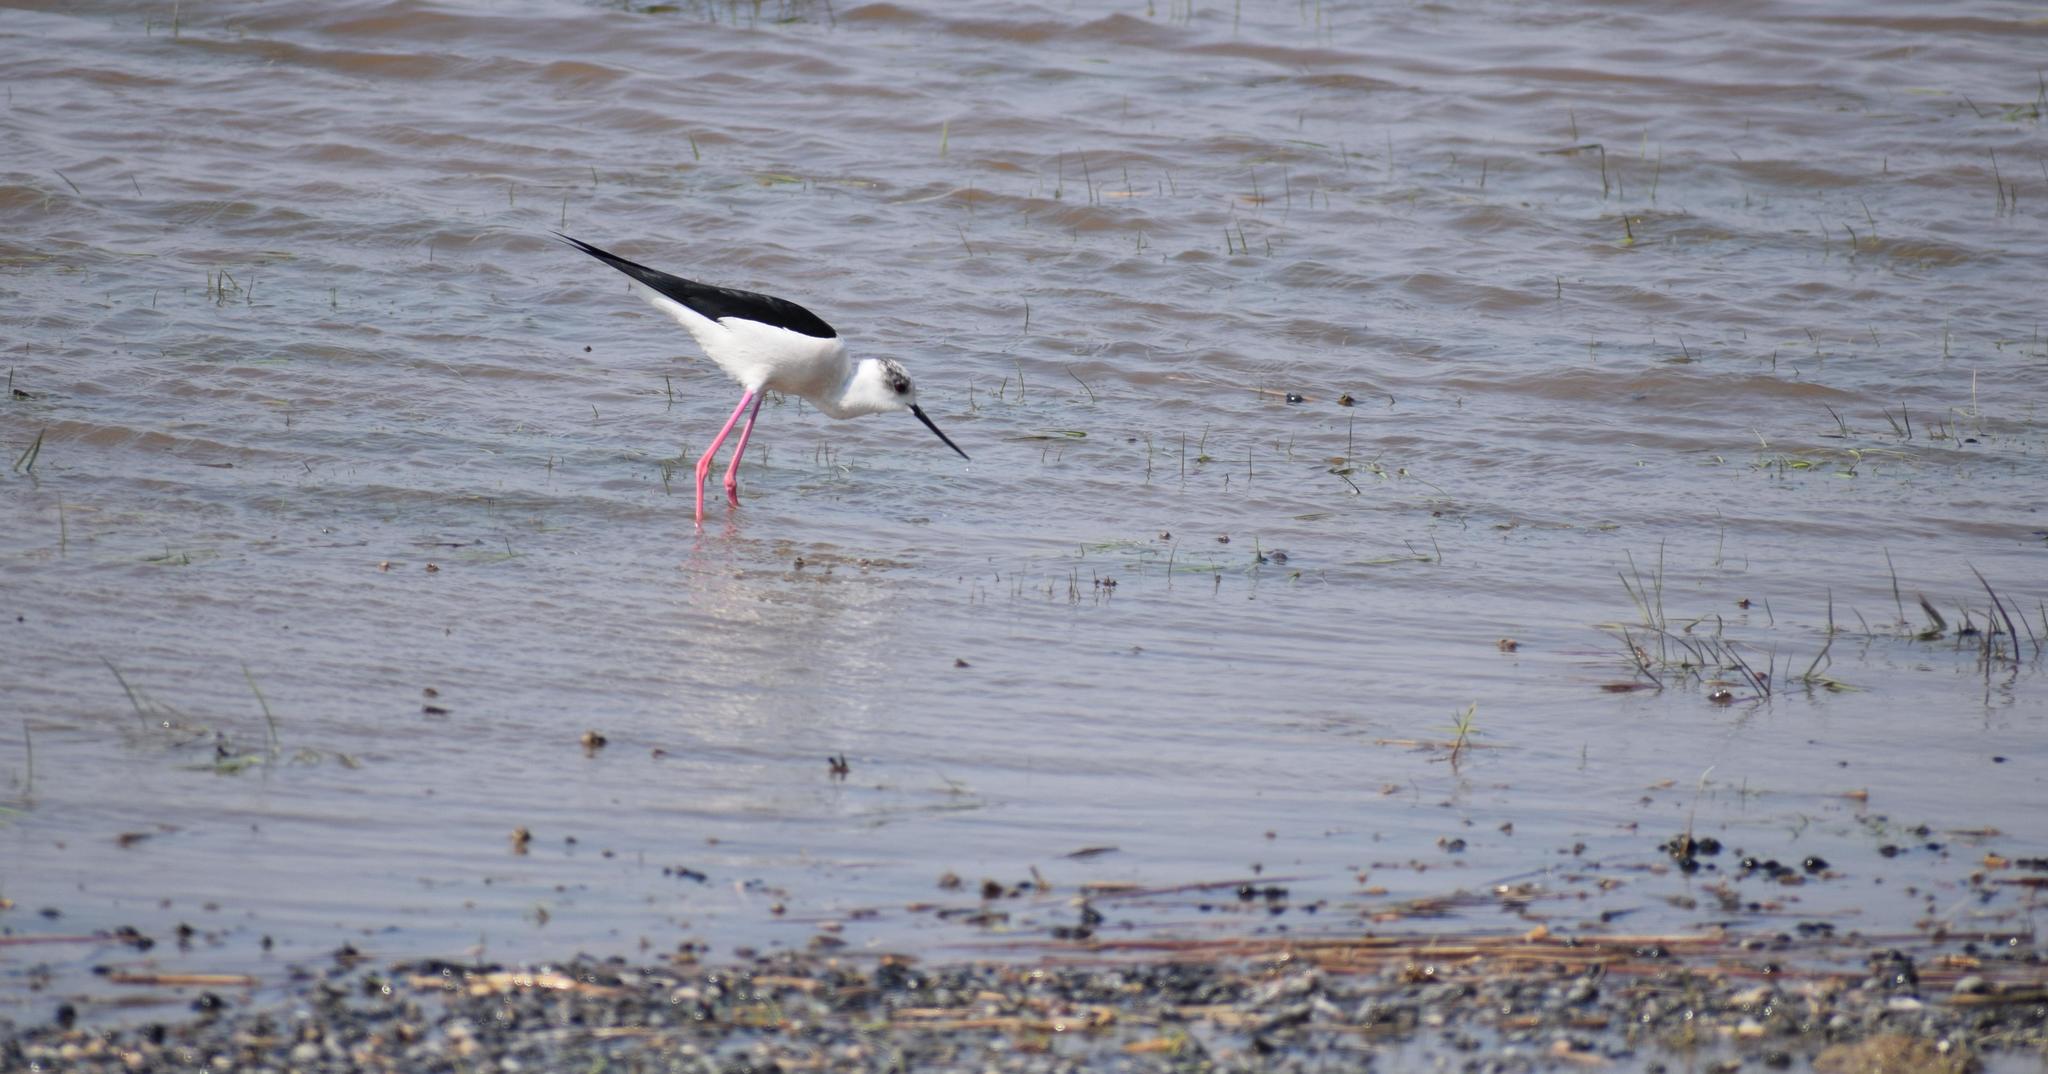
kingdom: Animalia
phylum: Chordata
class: Aves
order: Charadriiformes
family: Recurvirostridae
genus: Himantopus
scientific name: Himantopus himantopus
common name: Black-winged stilt
